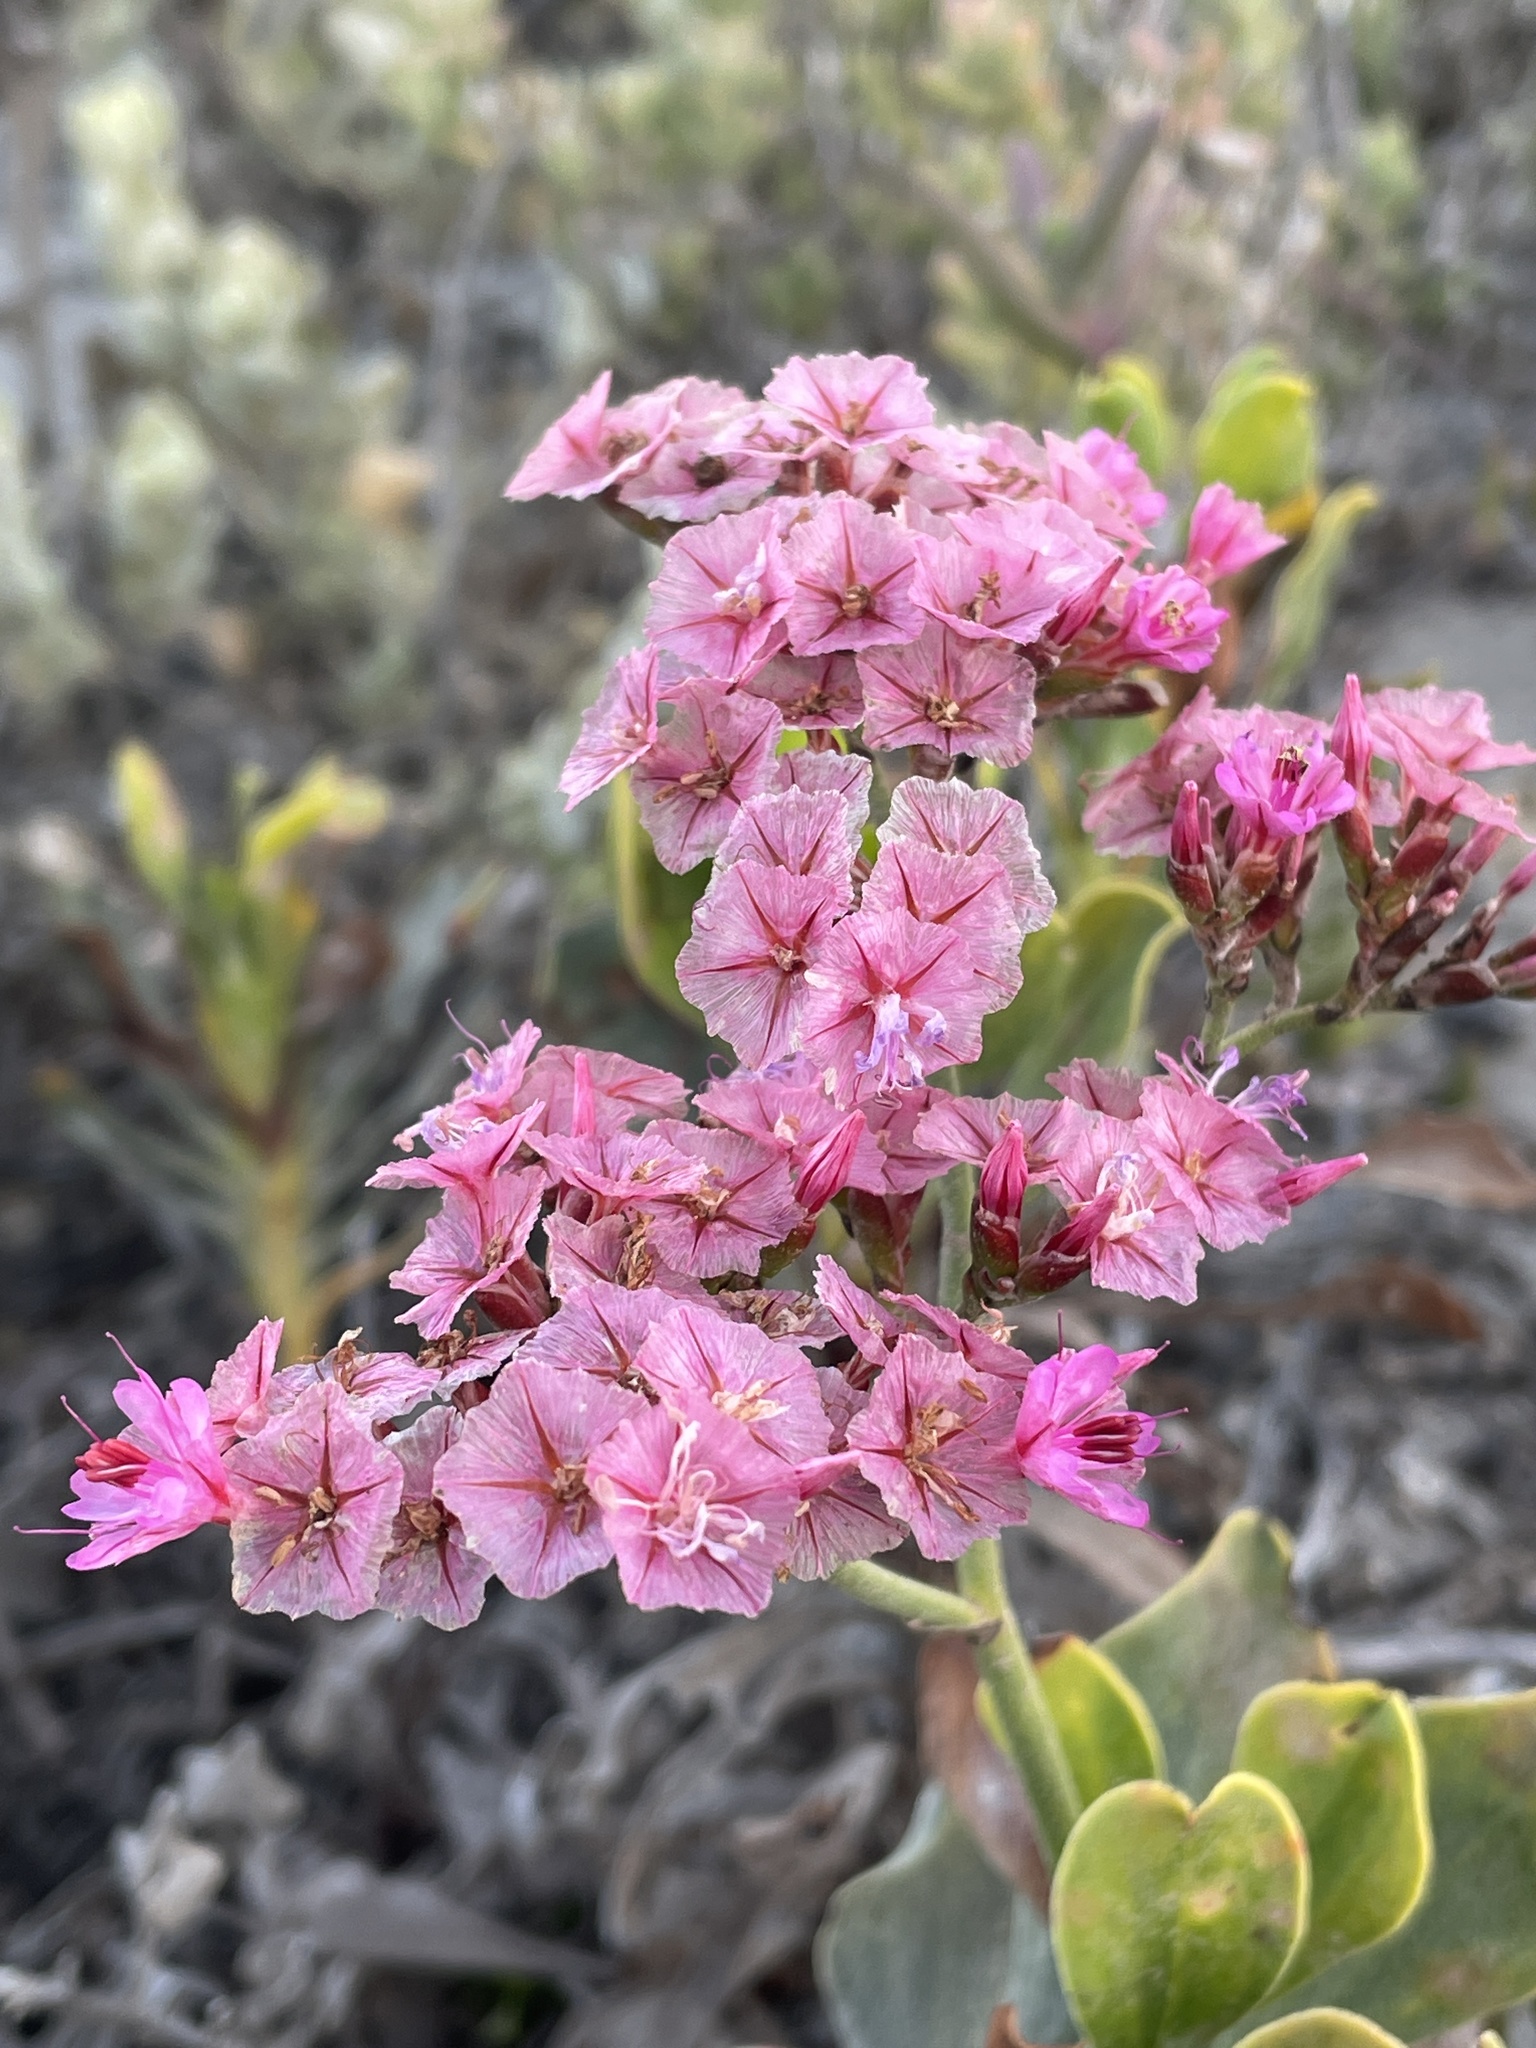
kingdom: Plantae
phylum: Tracheophyta
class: Magnoliopsida
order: Caryophyllales
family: Plumbaginaceae
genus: Limonium
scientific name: Limonium peregrinum
